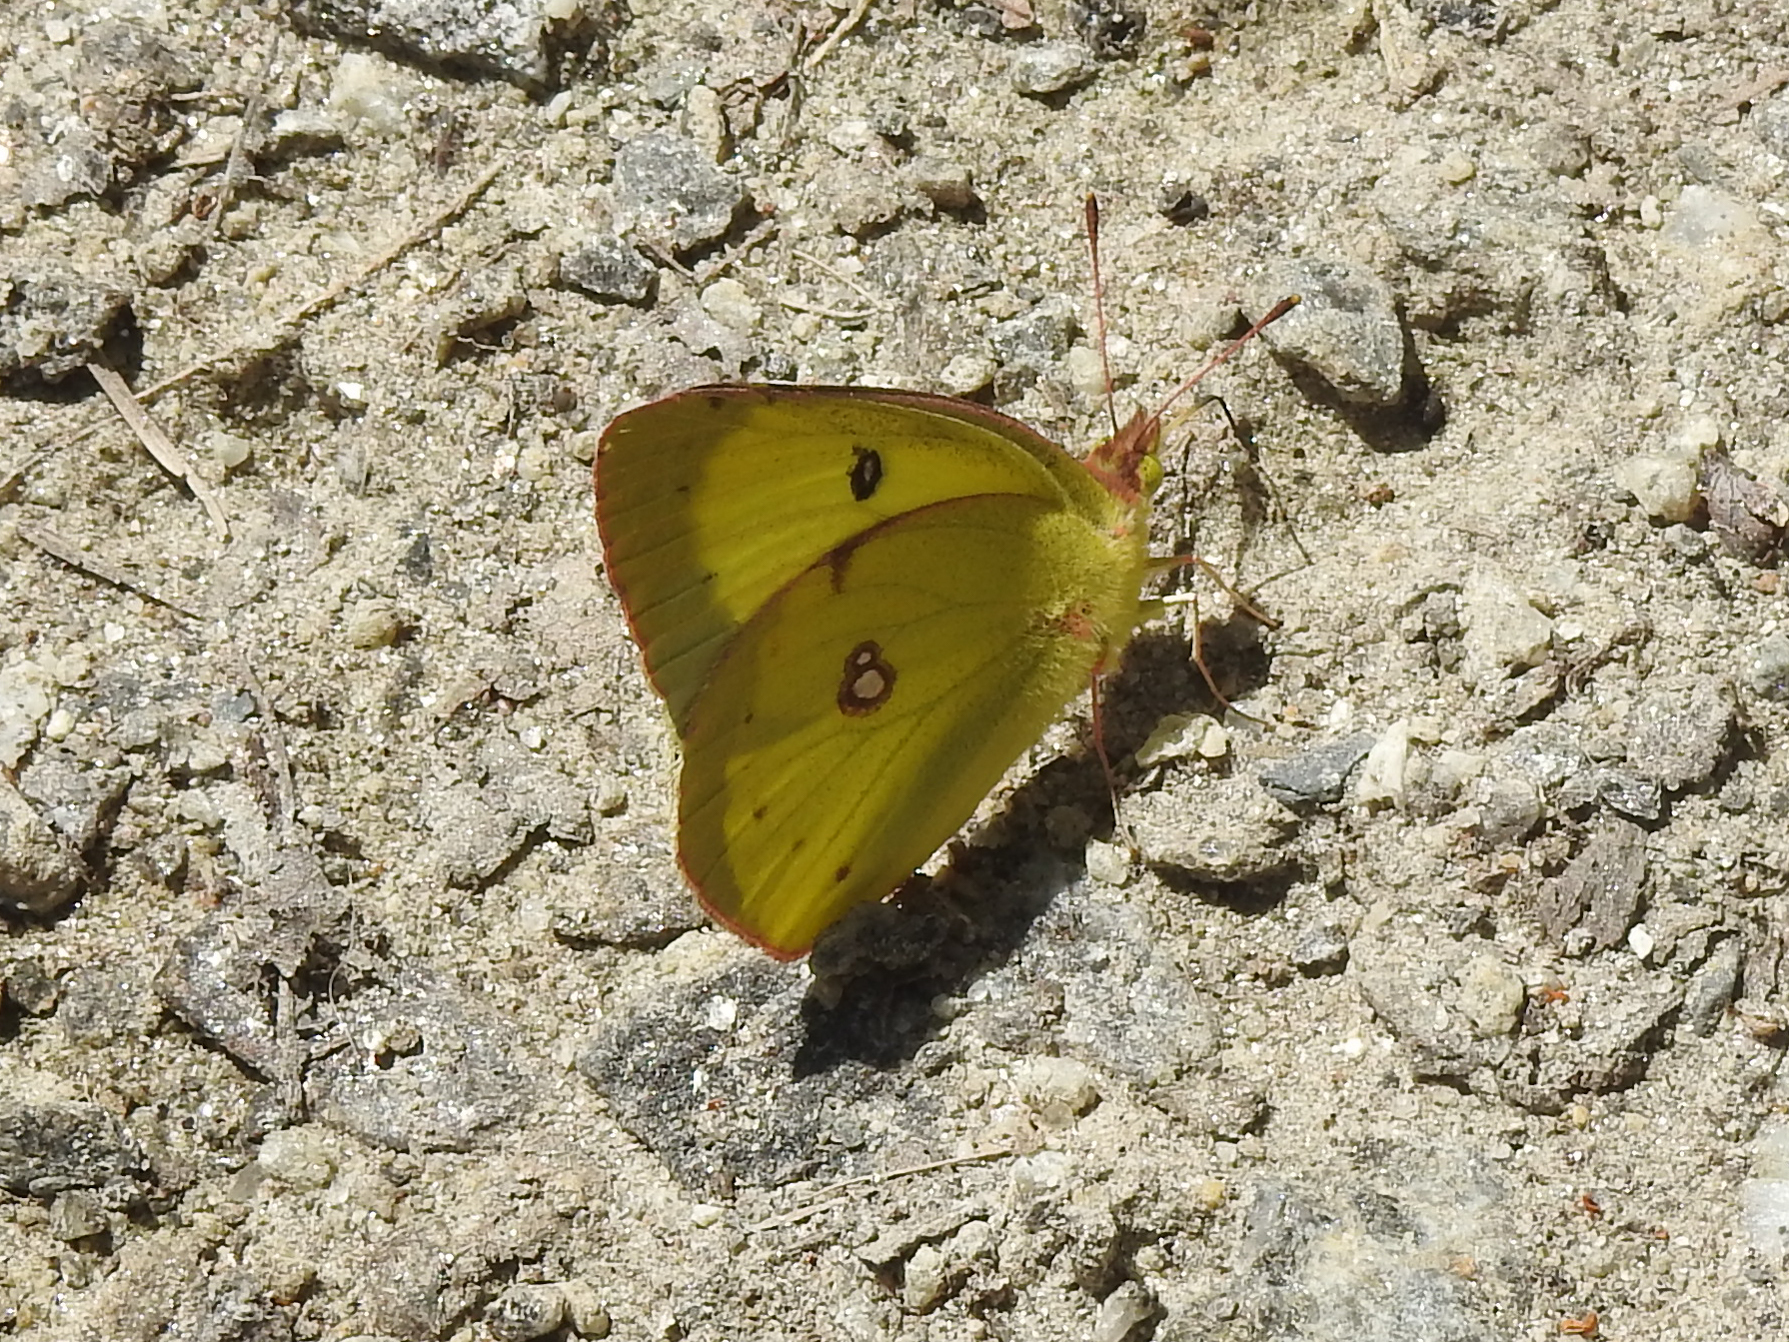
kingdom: Animalia
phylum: Arthropoda
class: Insecta
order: Lepidoptera
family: Pieridae
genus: Colias
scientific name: Colias philodice
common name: Clouded sulphur
